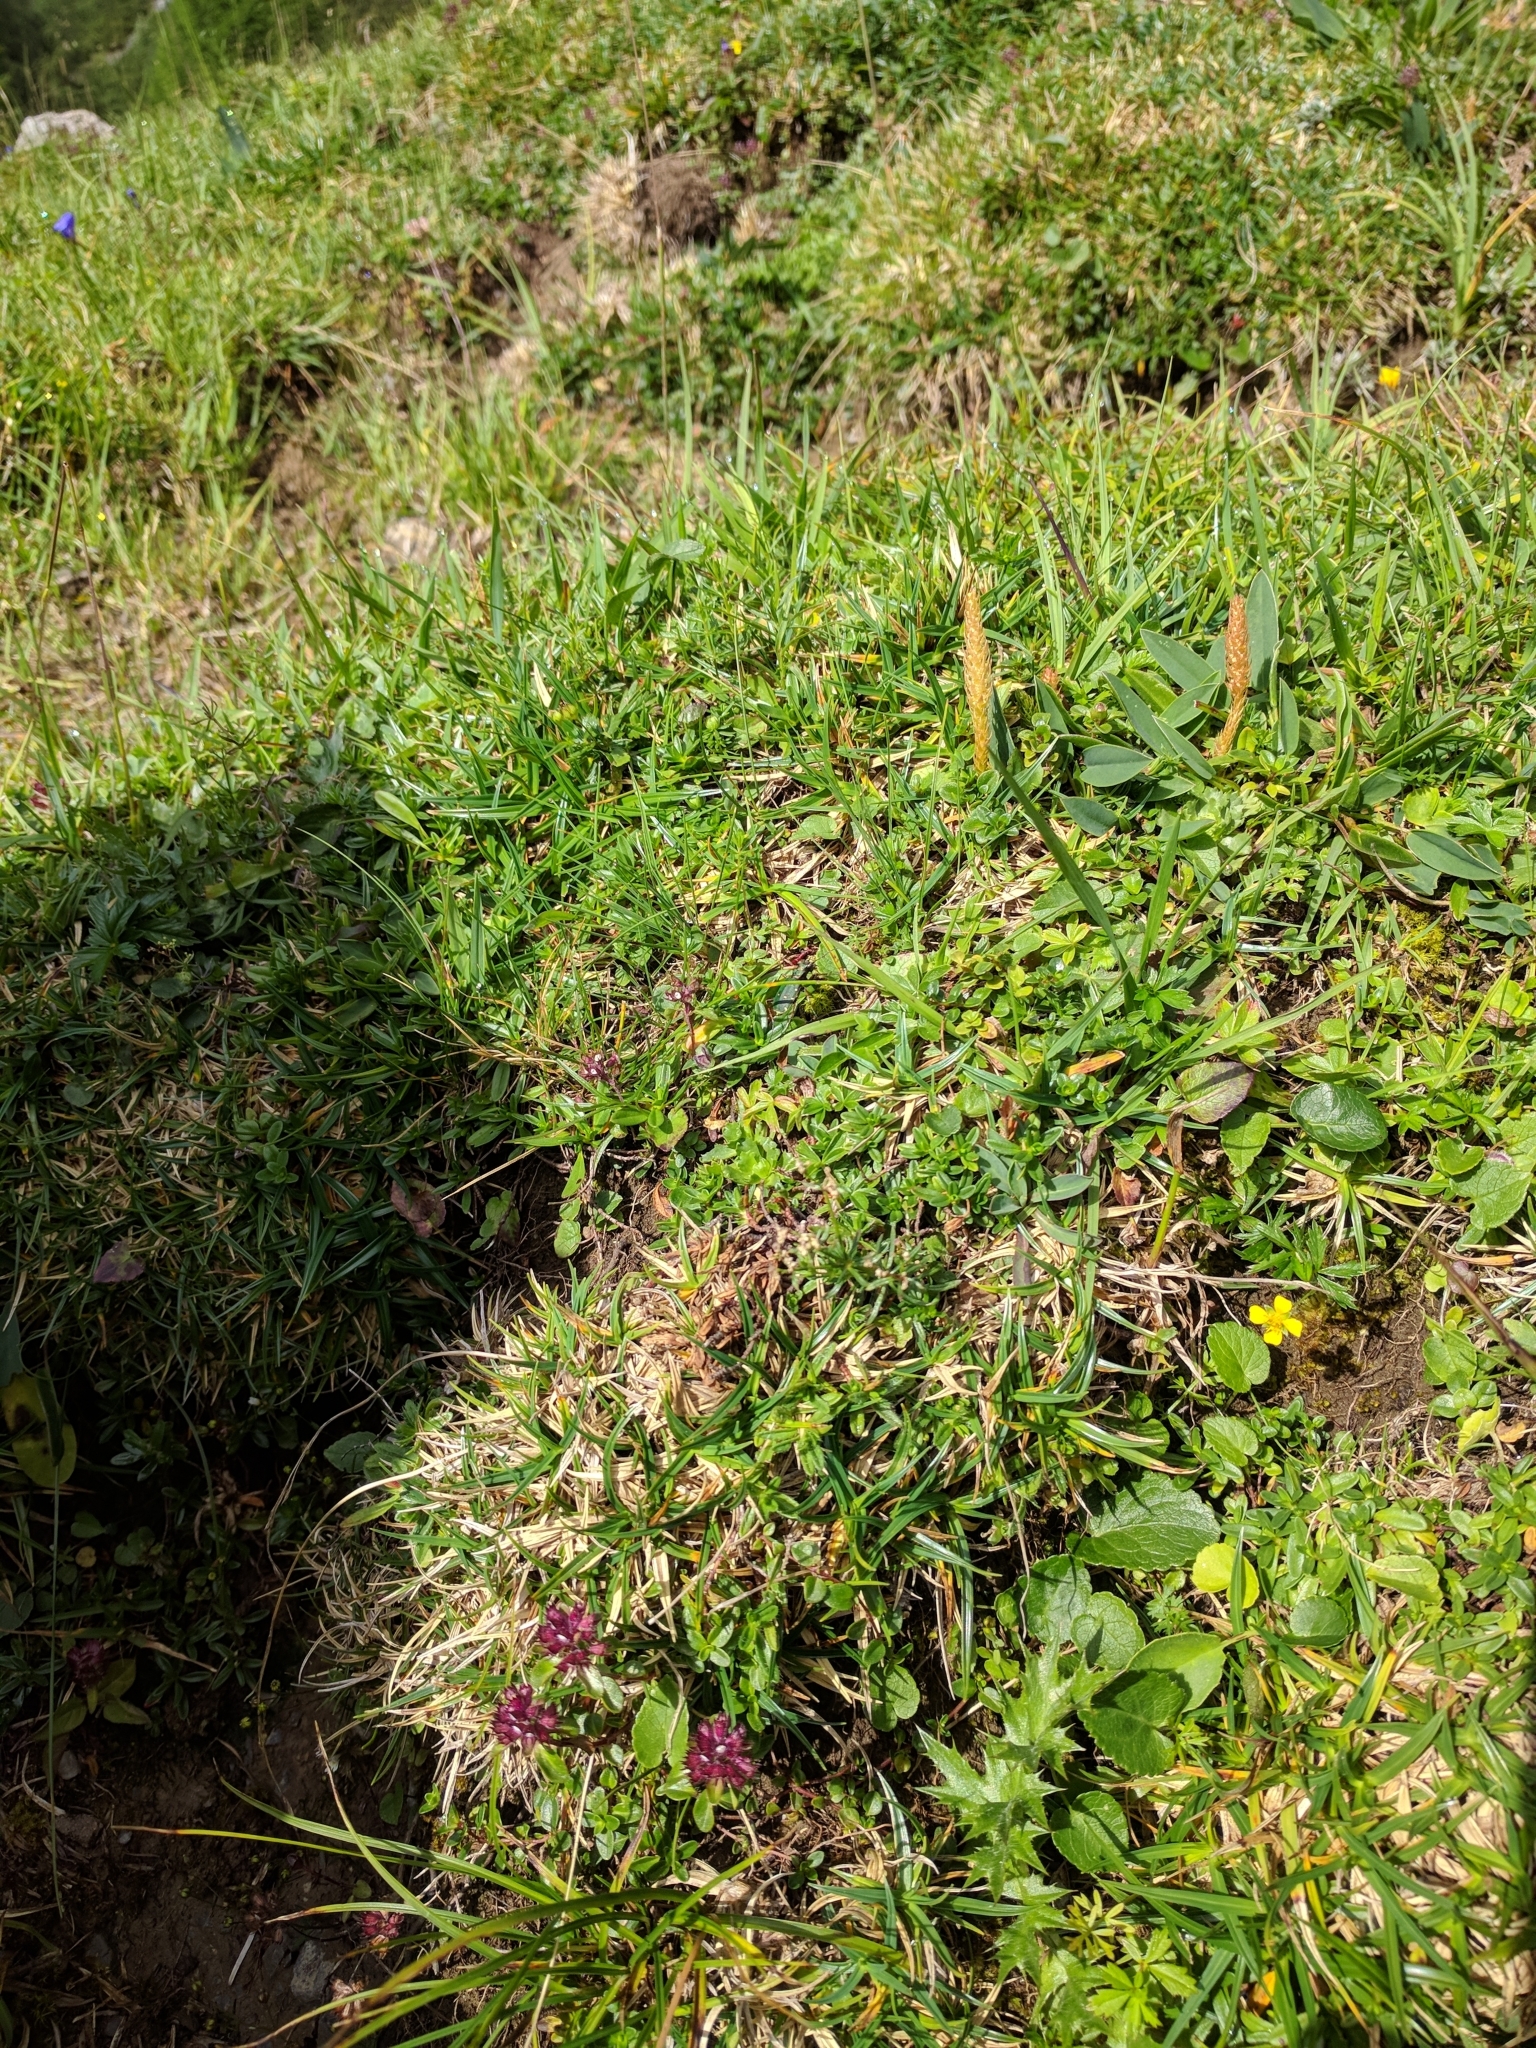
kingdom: Animalia
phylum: Arthropoda
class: Insecta
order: Coleoptera
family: Carabidae
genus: Cicindela
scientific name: Cicindela campestris
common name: Common tiger beetle
